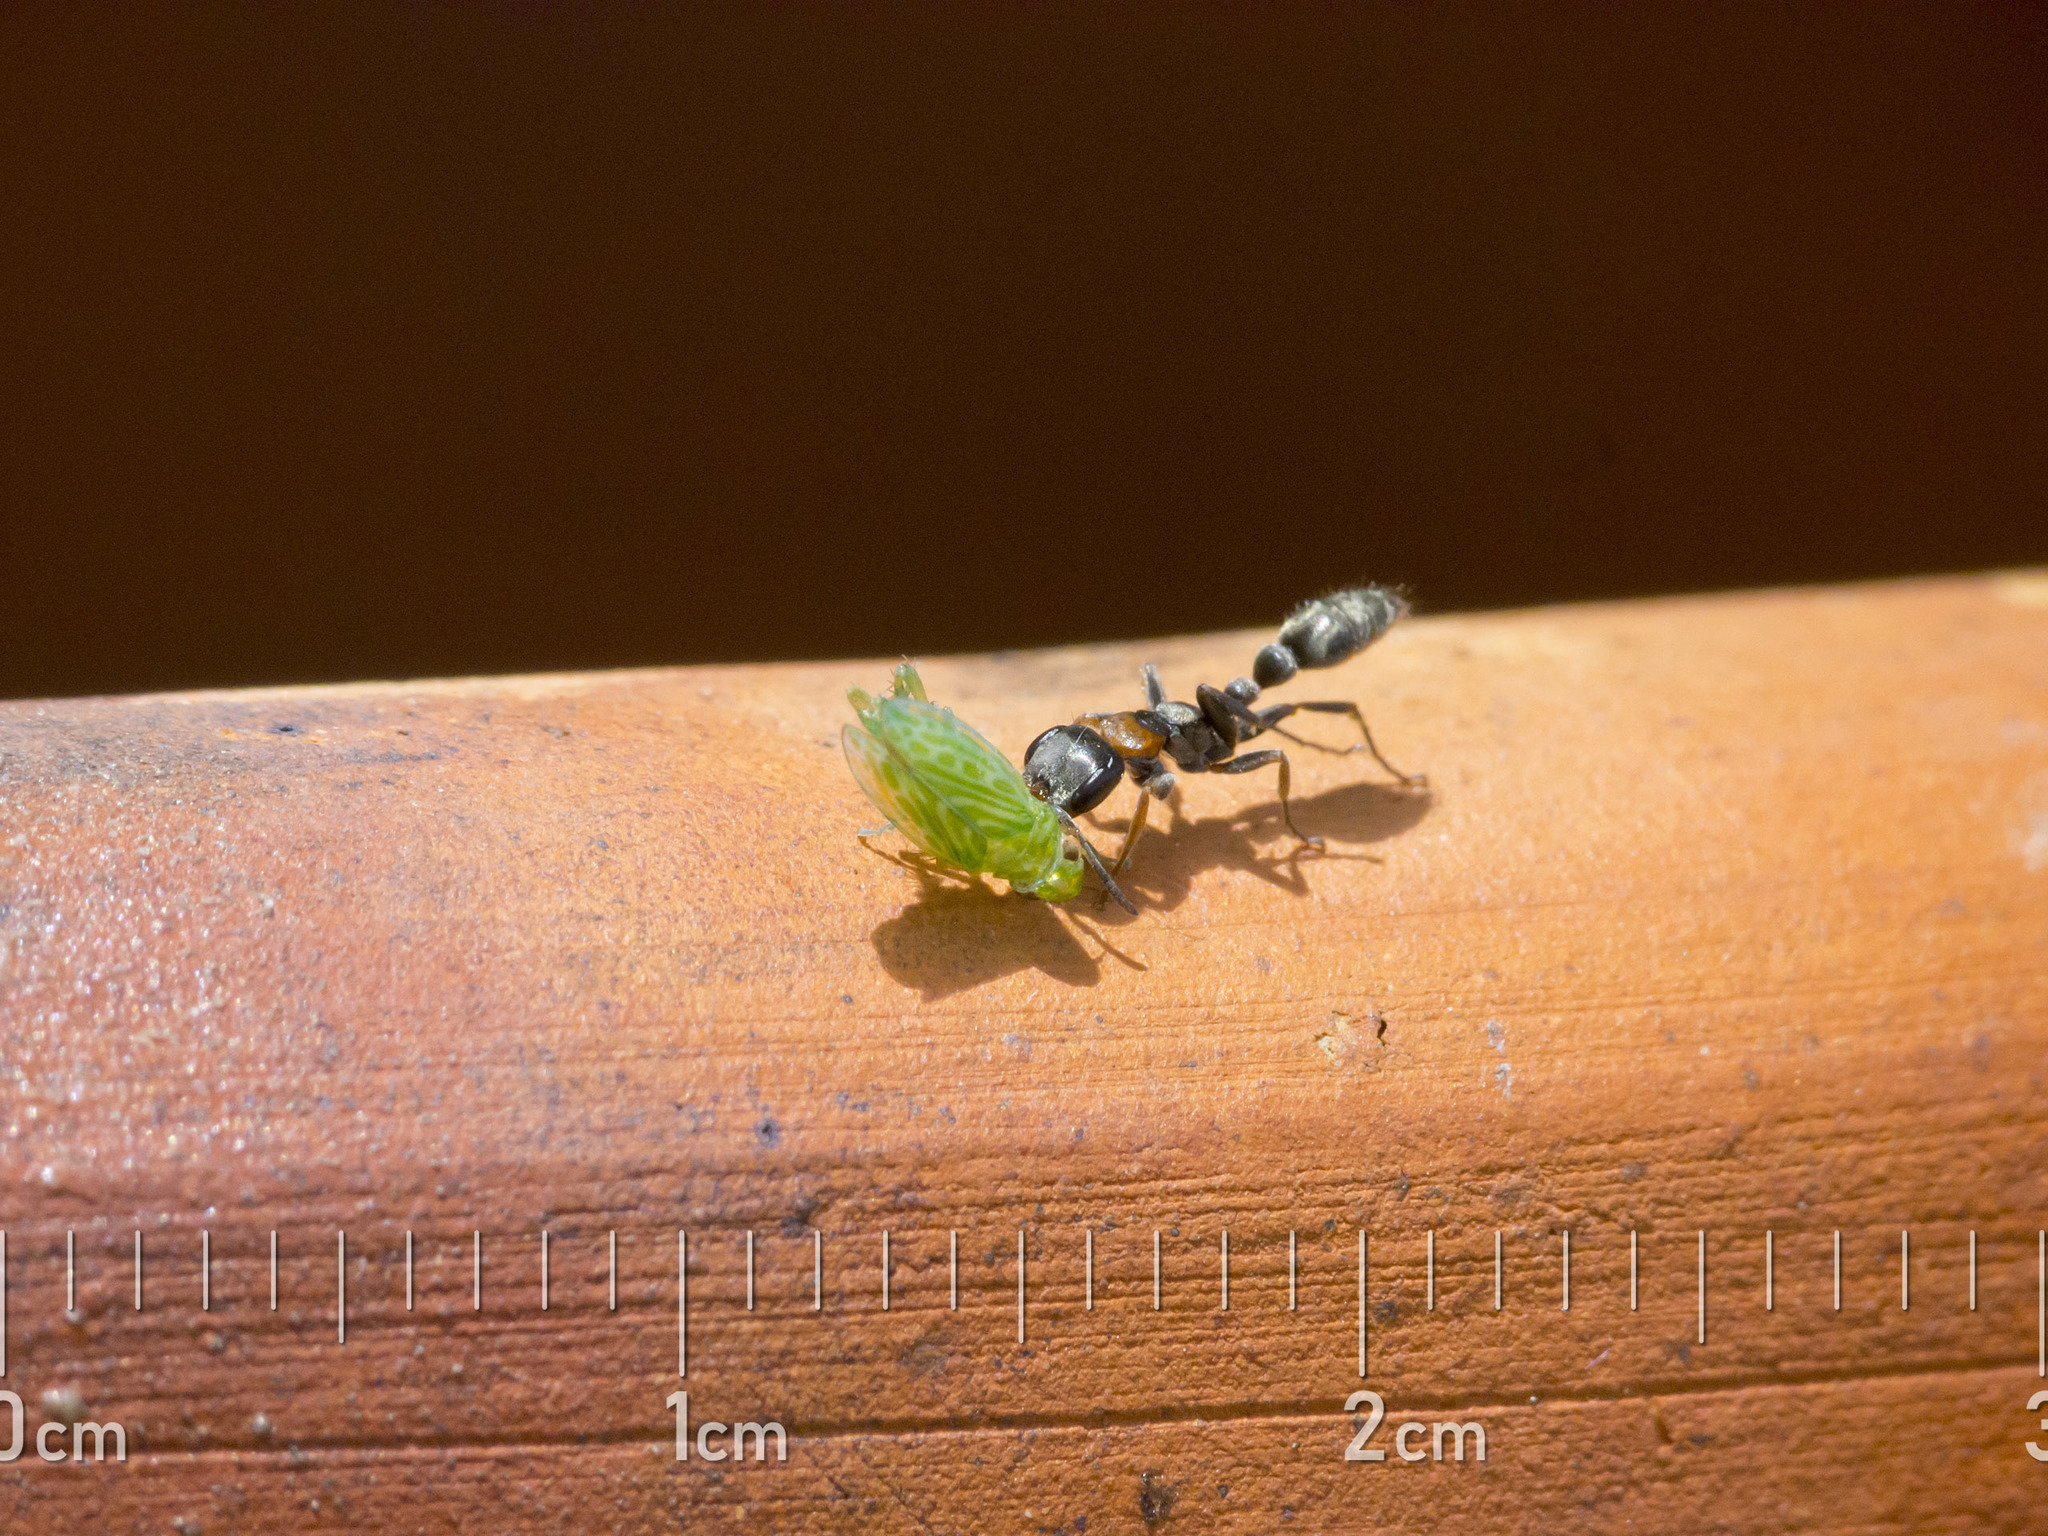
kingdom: Animalia
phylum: Arthropoda
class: Insecta
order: Hymenoptera
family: Formicidae
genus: Pseudomyrmex
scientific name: Pseudomyrmex gracilis
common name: Graceful twig ant
